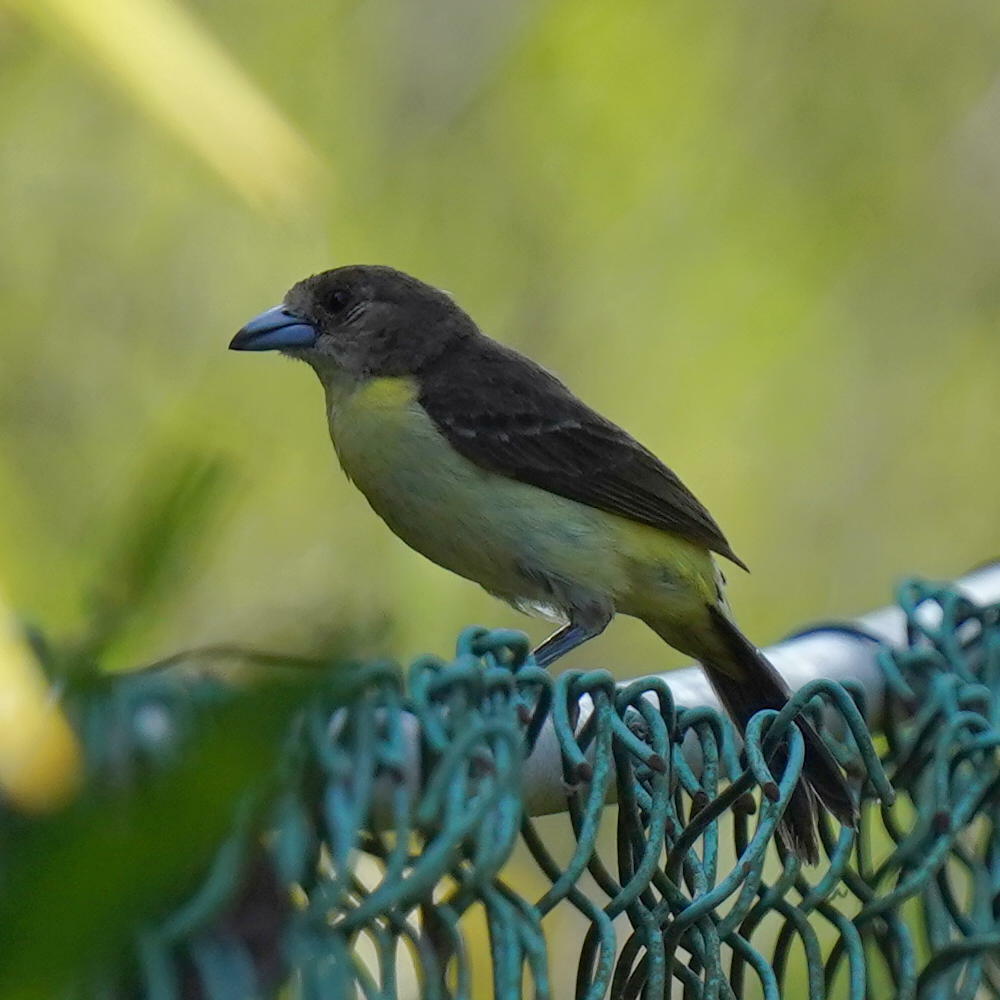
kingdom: Animalia
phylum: Chordata
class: Aves
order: Passeriformes
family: Thraupidae
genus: Ramphocelus
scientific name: Ramphocelus flammigerus
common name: Flame-rumped tanager
